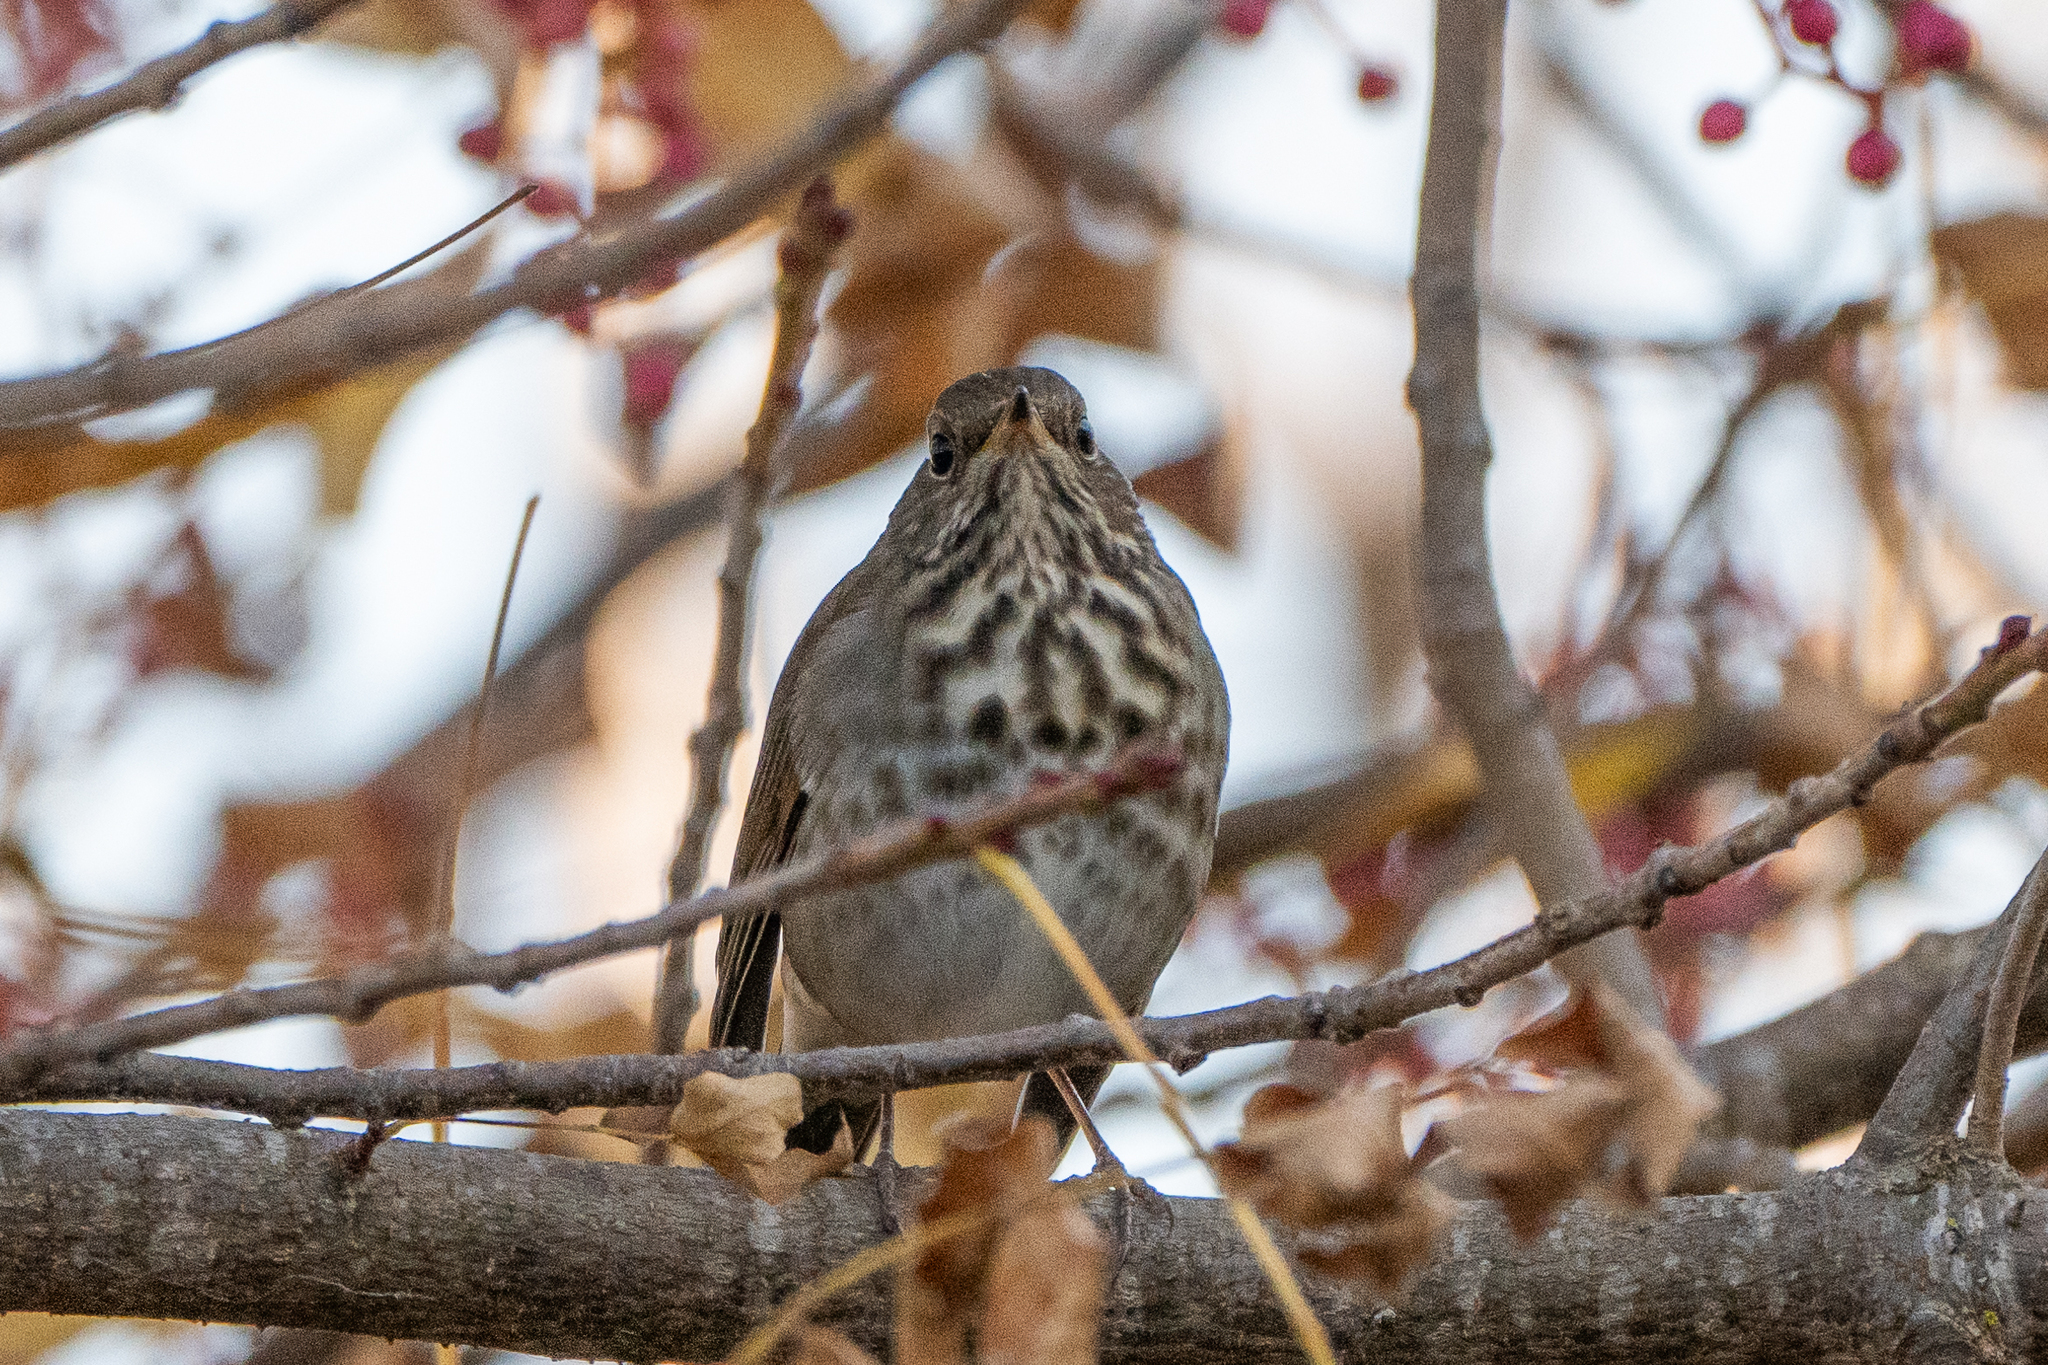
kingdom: Animalia
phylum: Chordata
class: Aves
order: Passeriformes
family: Turdidae
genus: Catharus
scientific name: Catharus guttatus
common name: Hermit thrush
